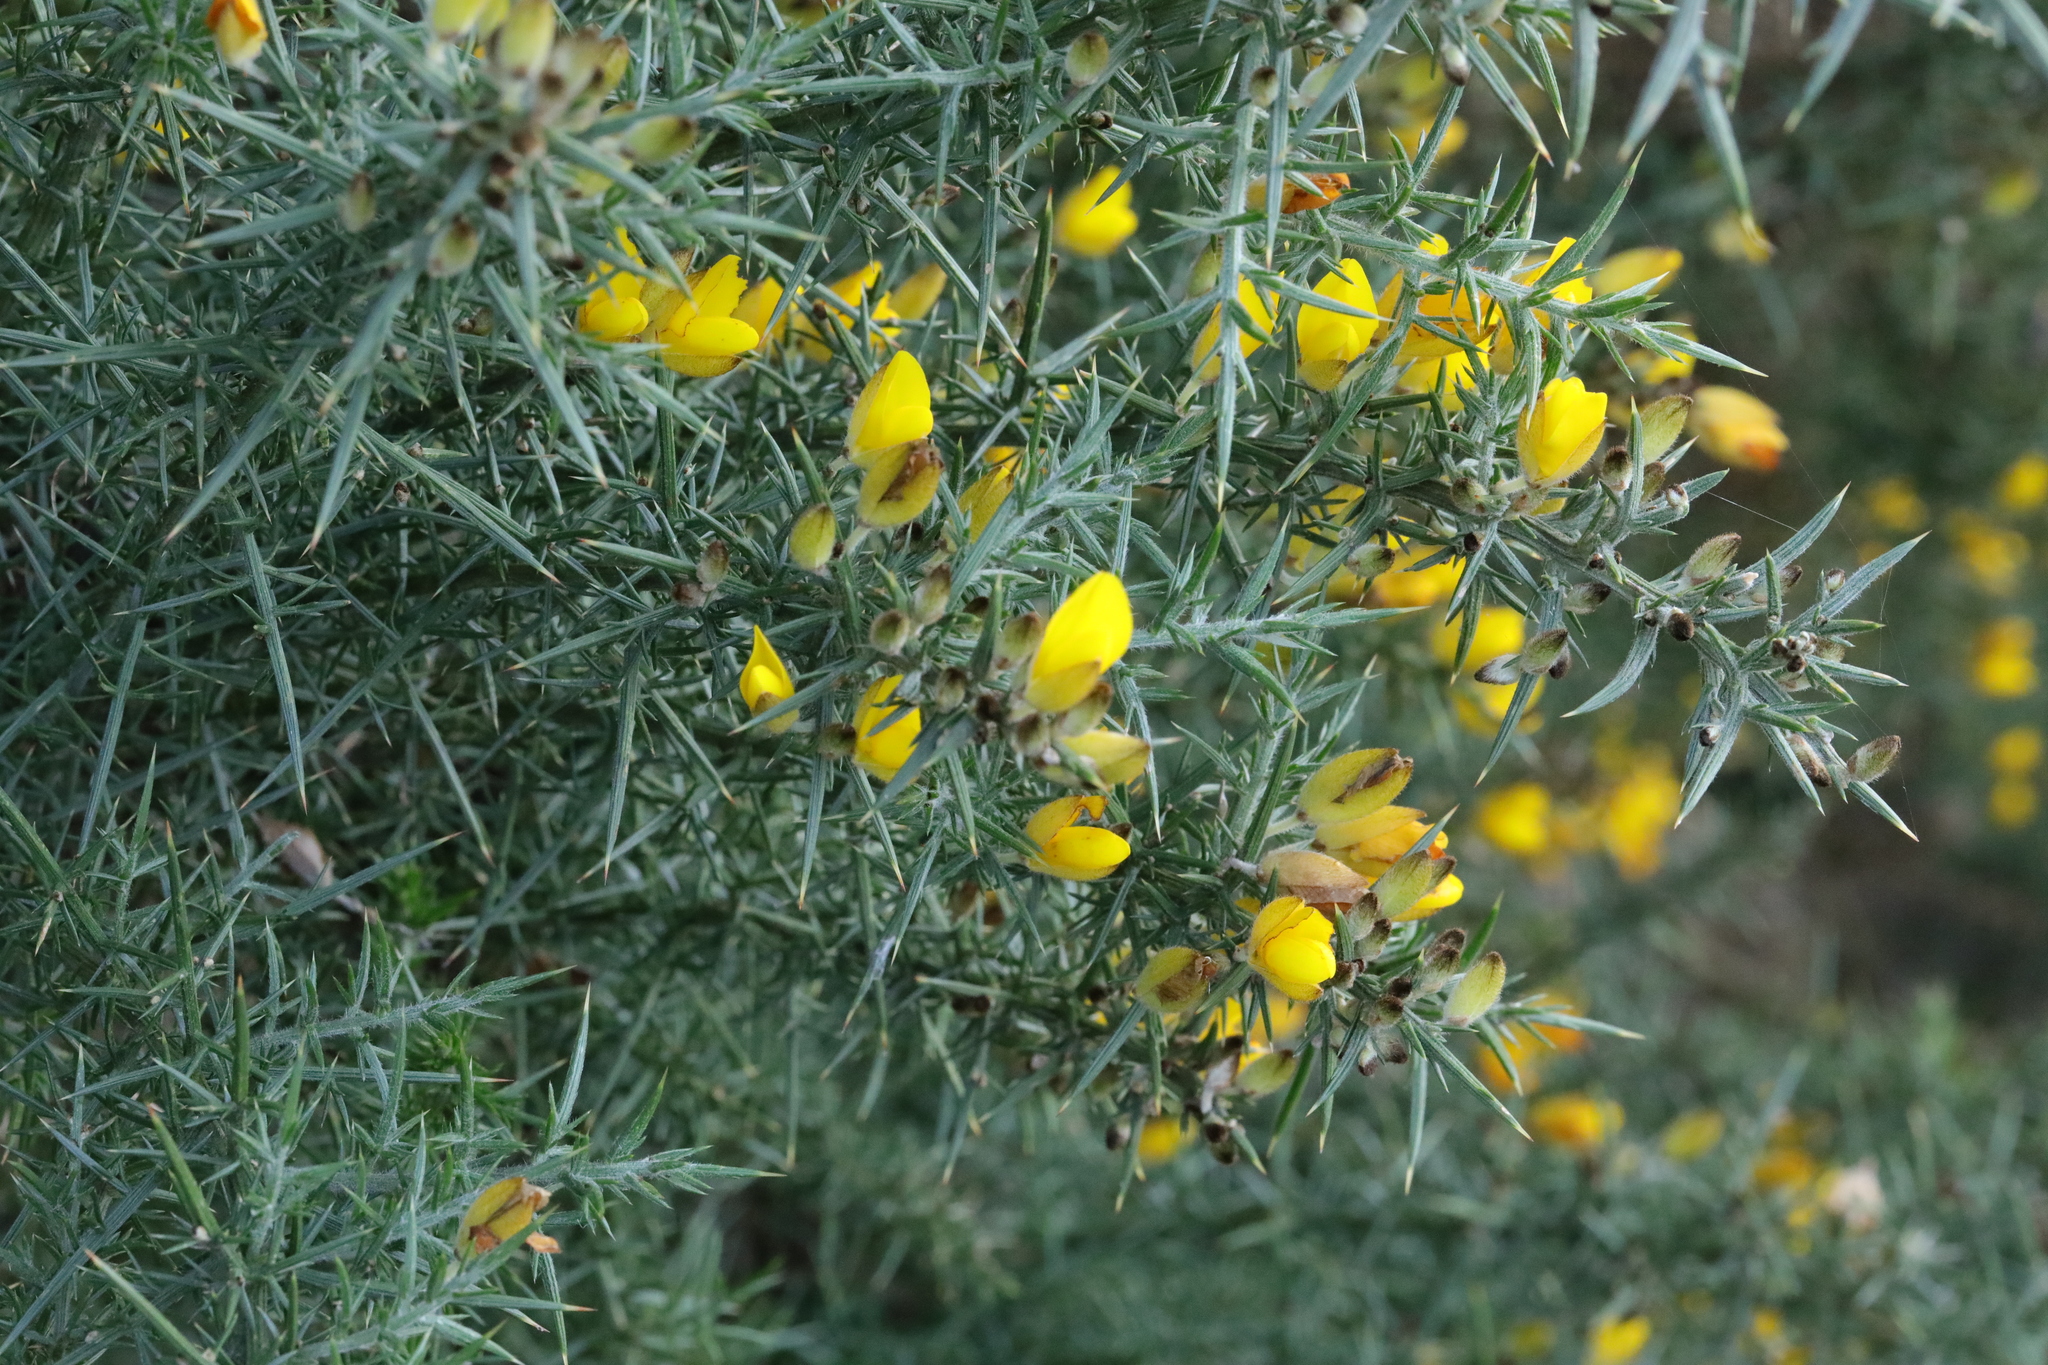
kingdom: Plantae
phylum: Tracheophyta
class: Magnoliopsida
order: Fabales
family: Fabaceae
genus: Ulex
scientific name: Ulex europaeus
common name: Common gorse
